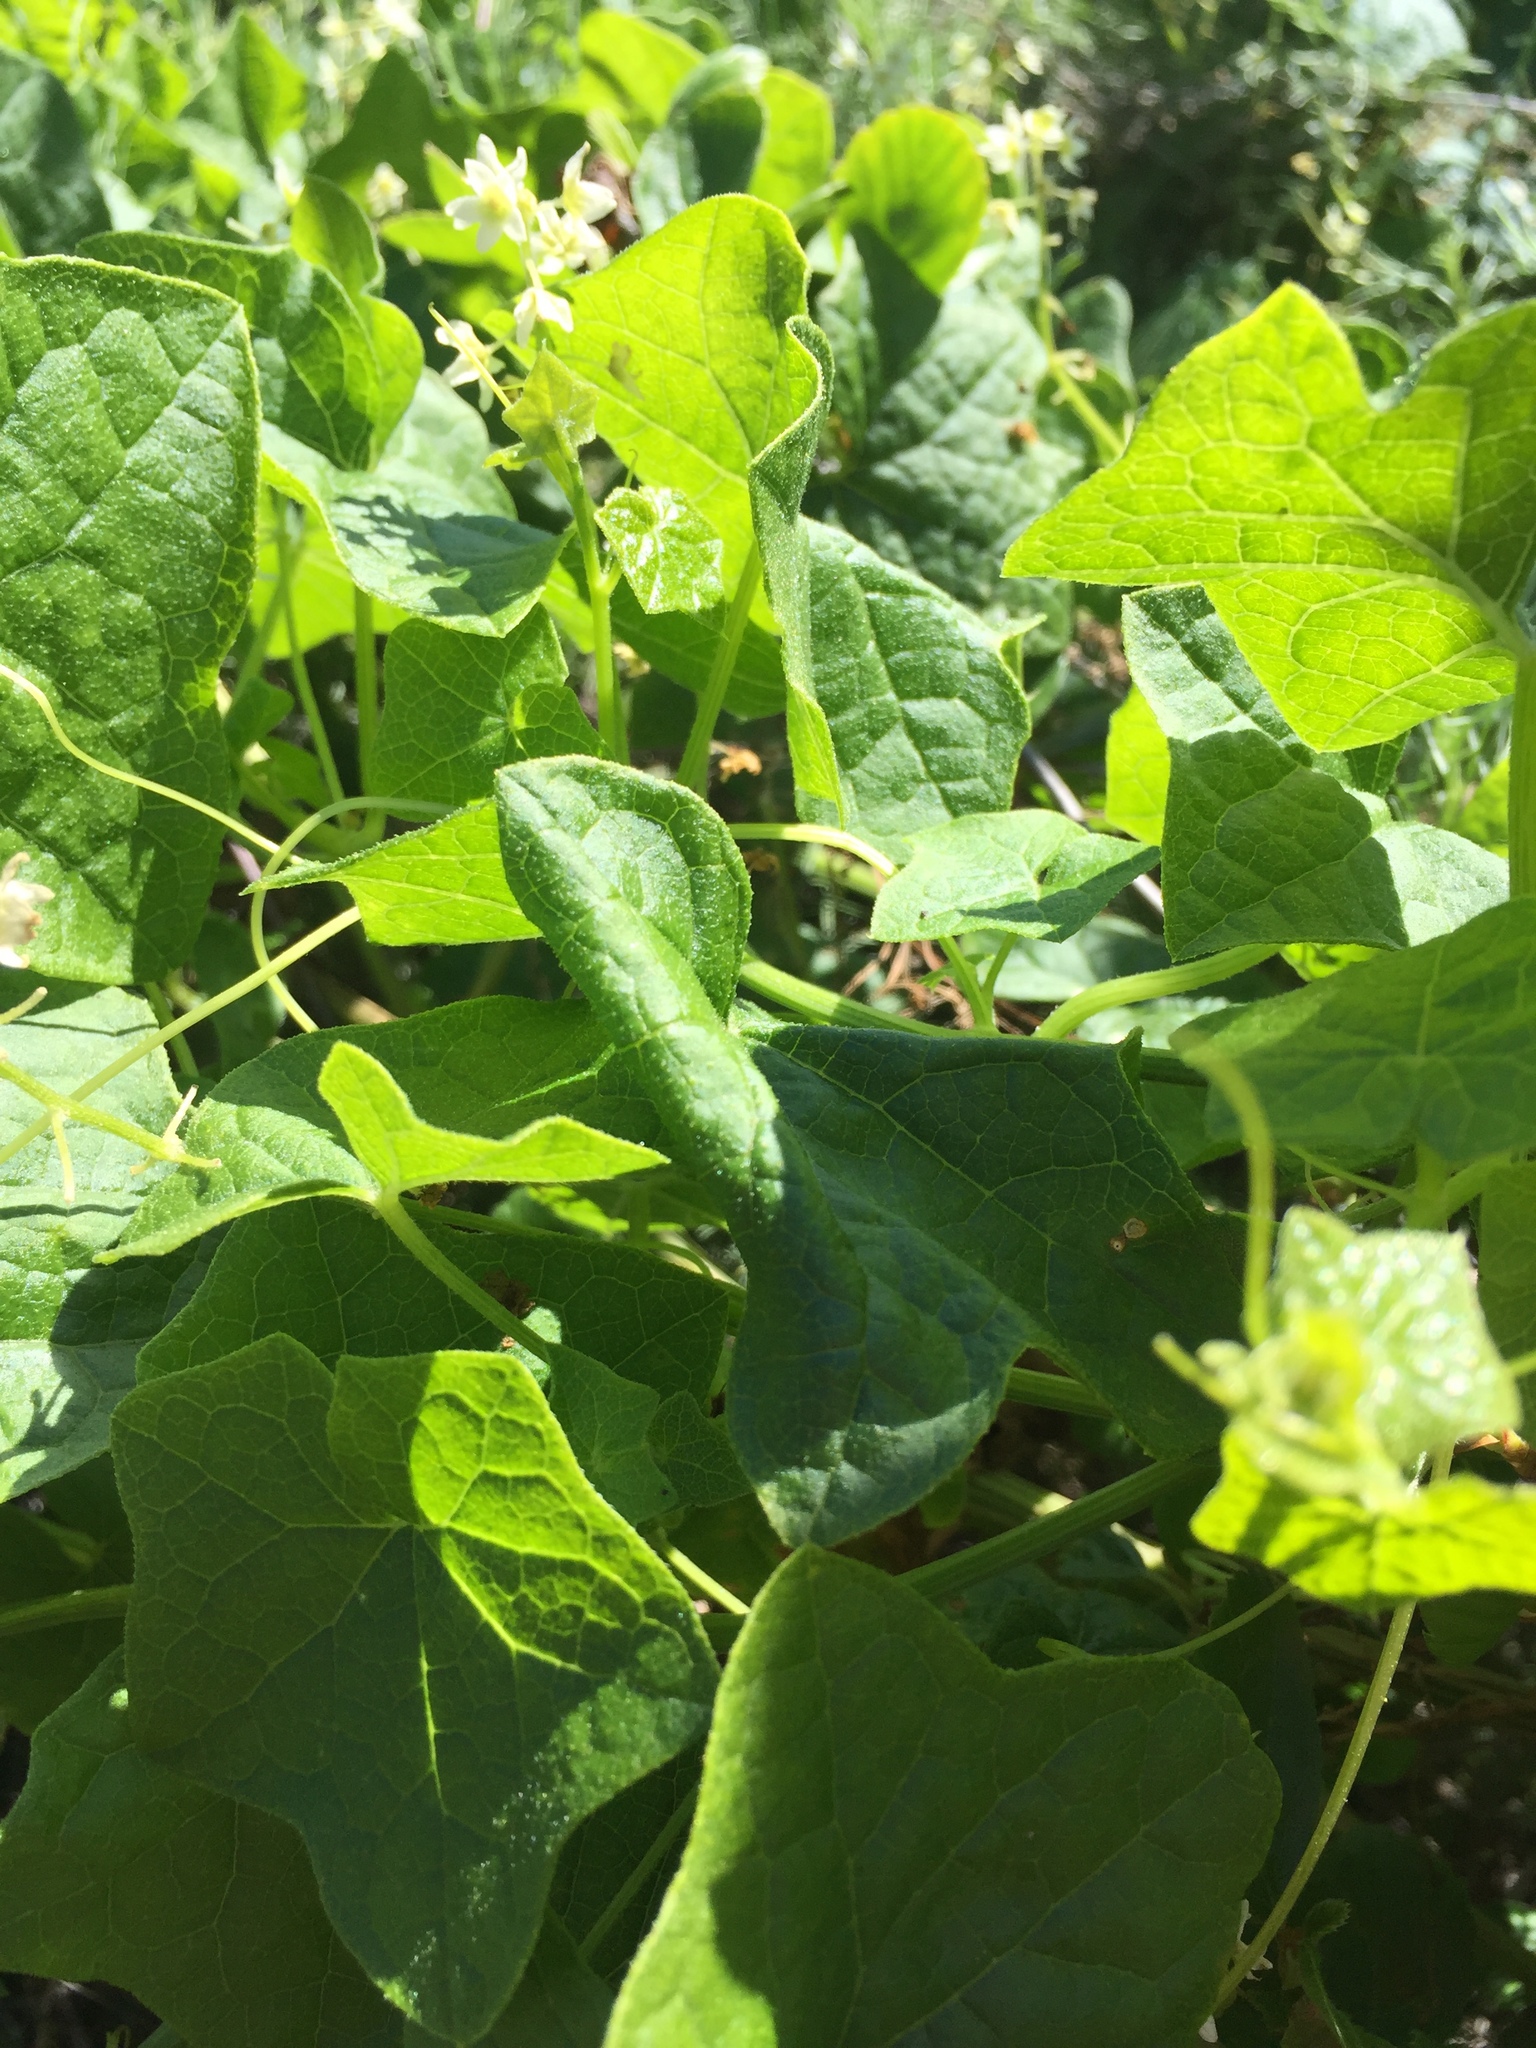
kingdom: Plantae
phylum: Tracheophyta
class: Magnoliopsida
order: Cucurbitales
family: Cucurbitaceae
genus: Marah
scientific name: Marah fabacea
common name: California manroot
